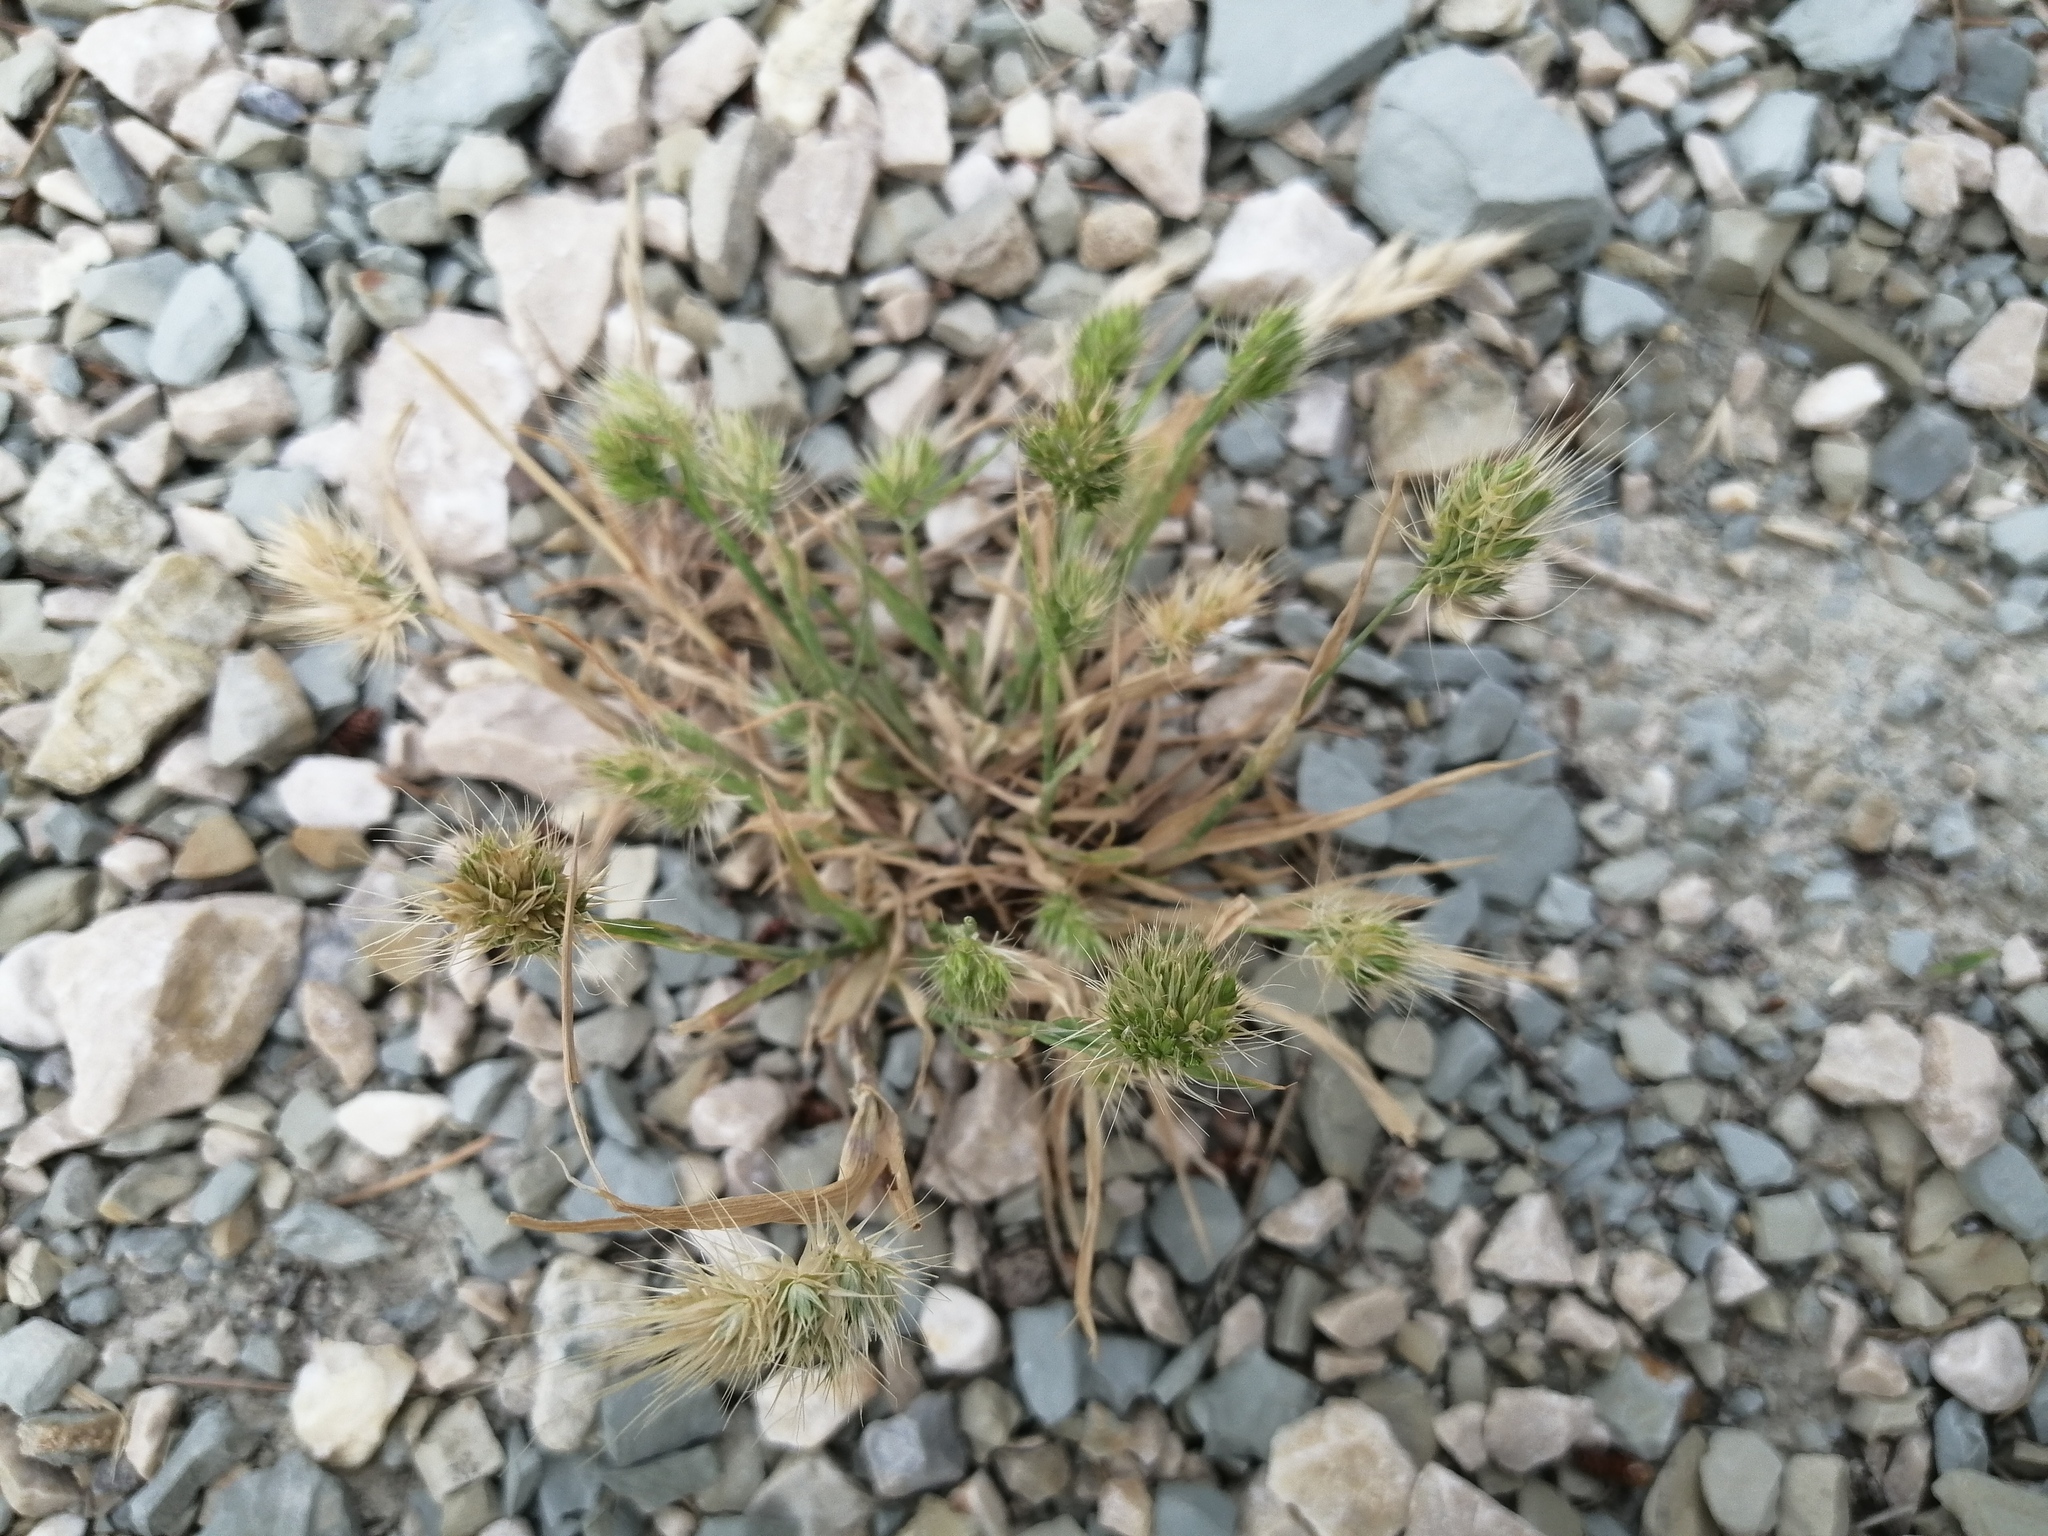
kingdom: Plantae
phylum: Tracheophyta
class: Liliopsida
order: Poales
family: Poaceae
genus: Echinaria
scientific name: Echinaria capitata
